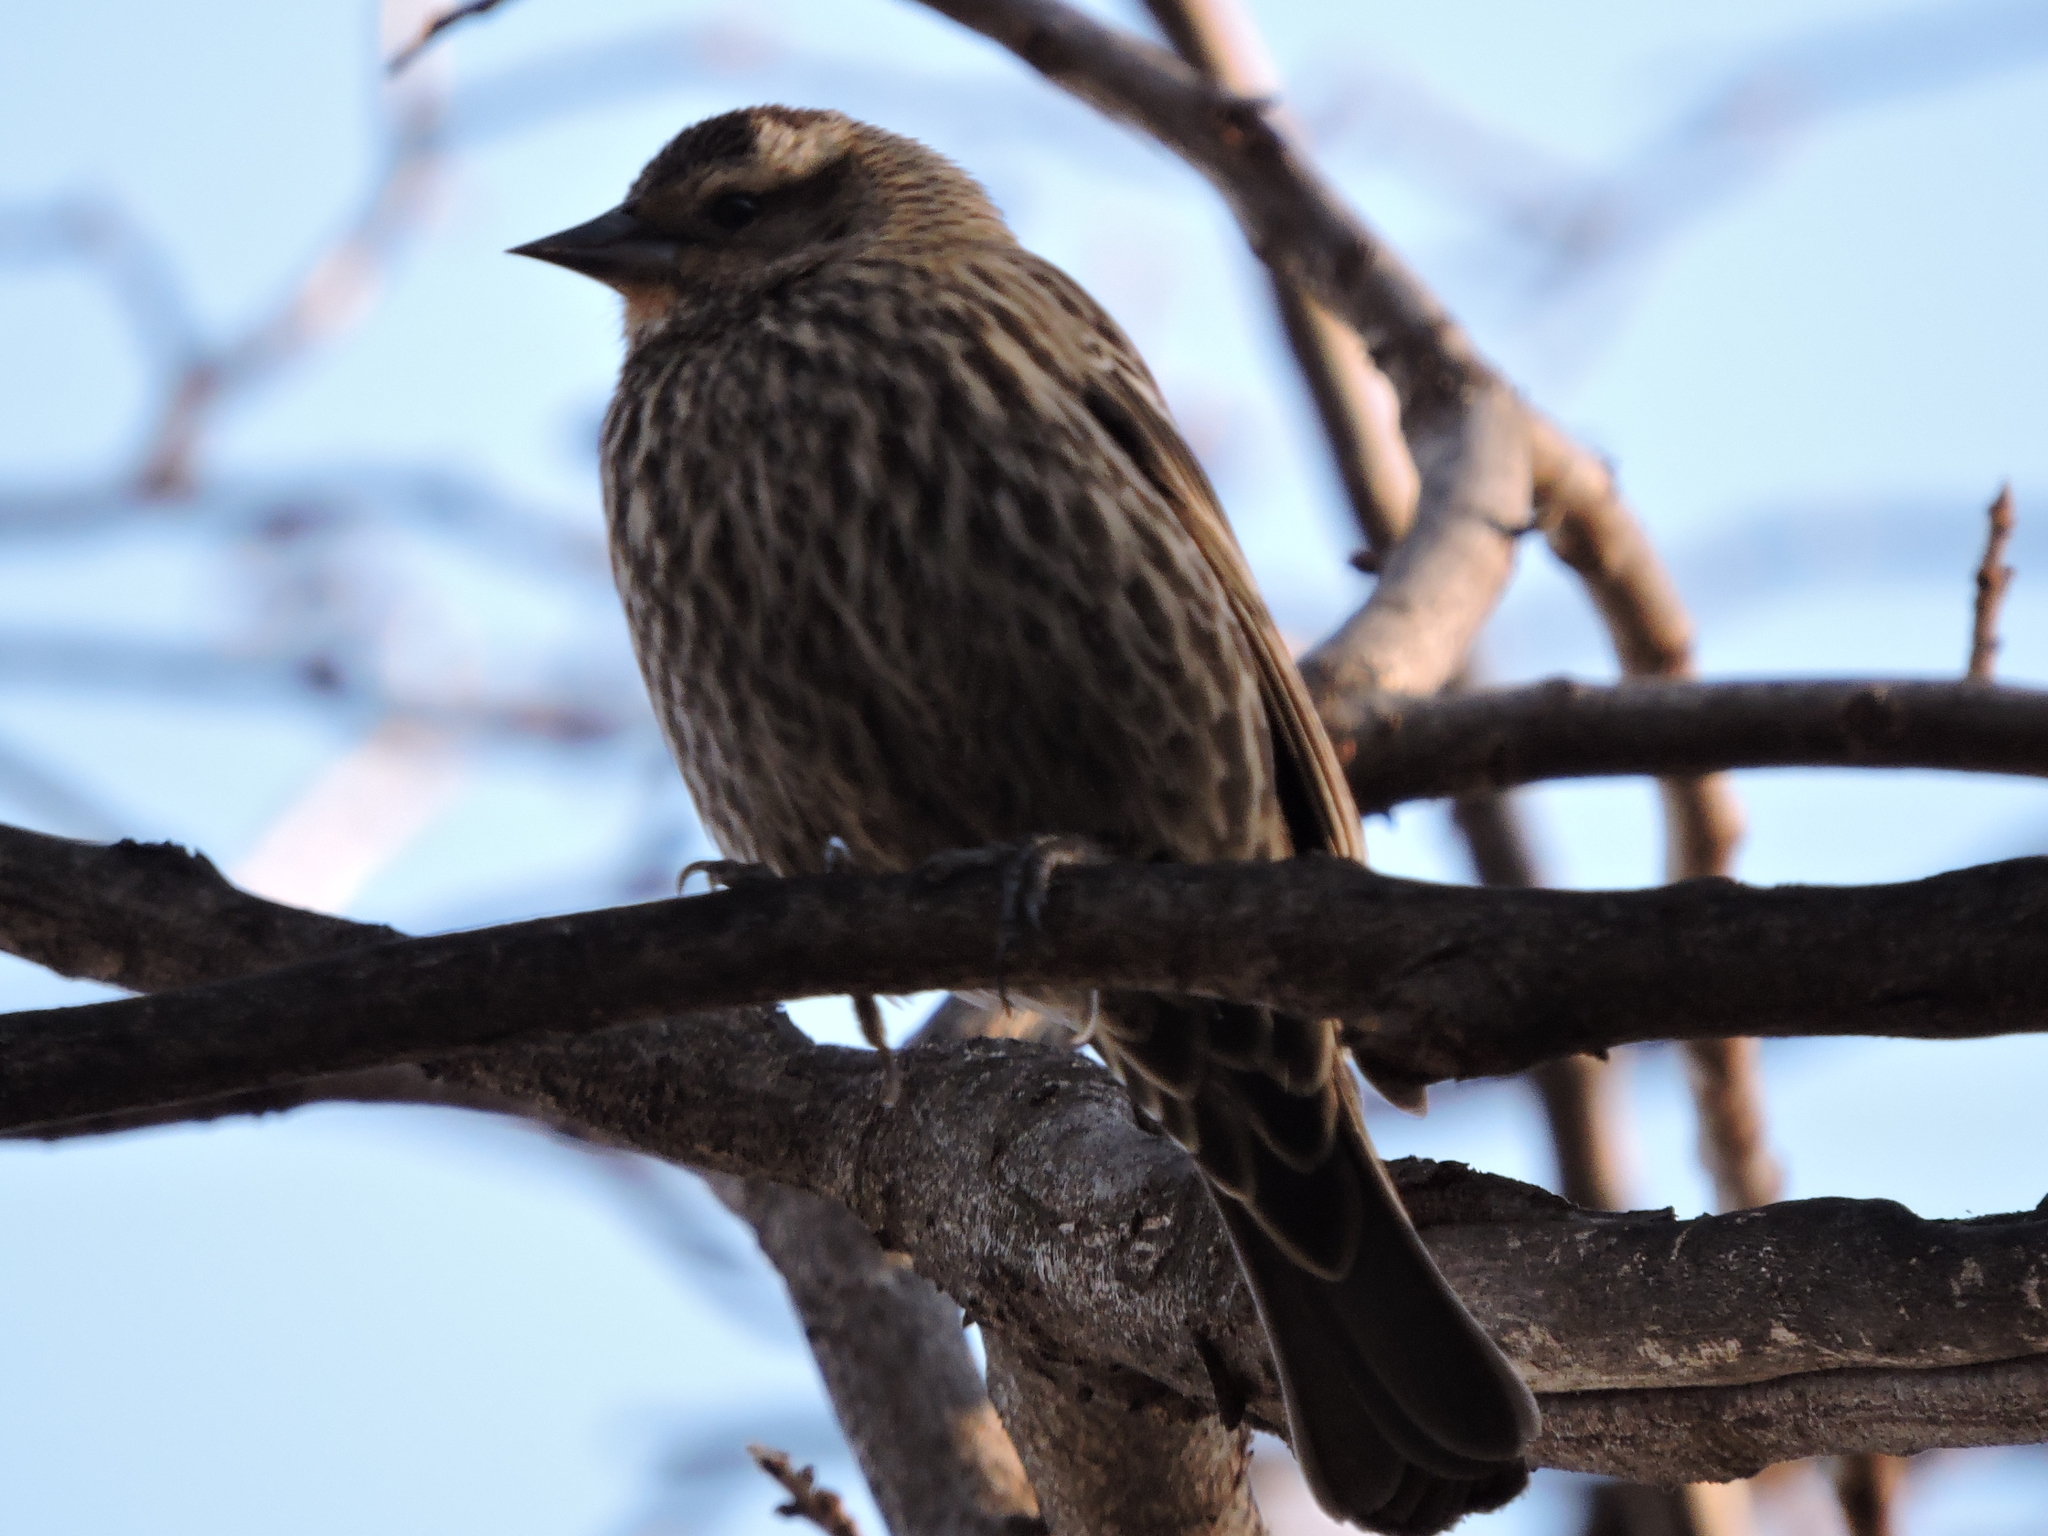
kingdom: Animalia
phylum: Chordata
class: Aves
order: Passeriformes
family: Icteridae
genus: Agelaius
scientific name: Agelaius phoeniceus
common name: Red-winged blackbird
